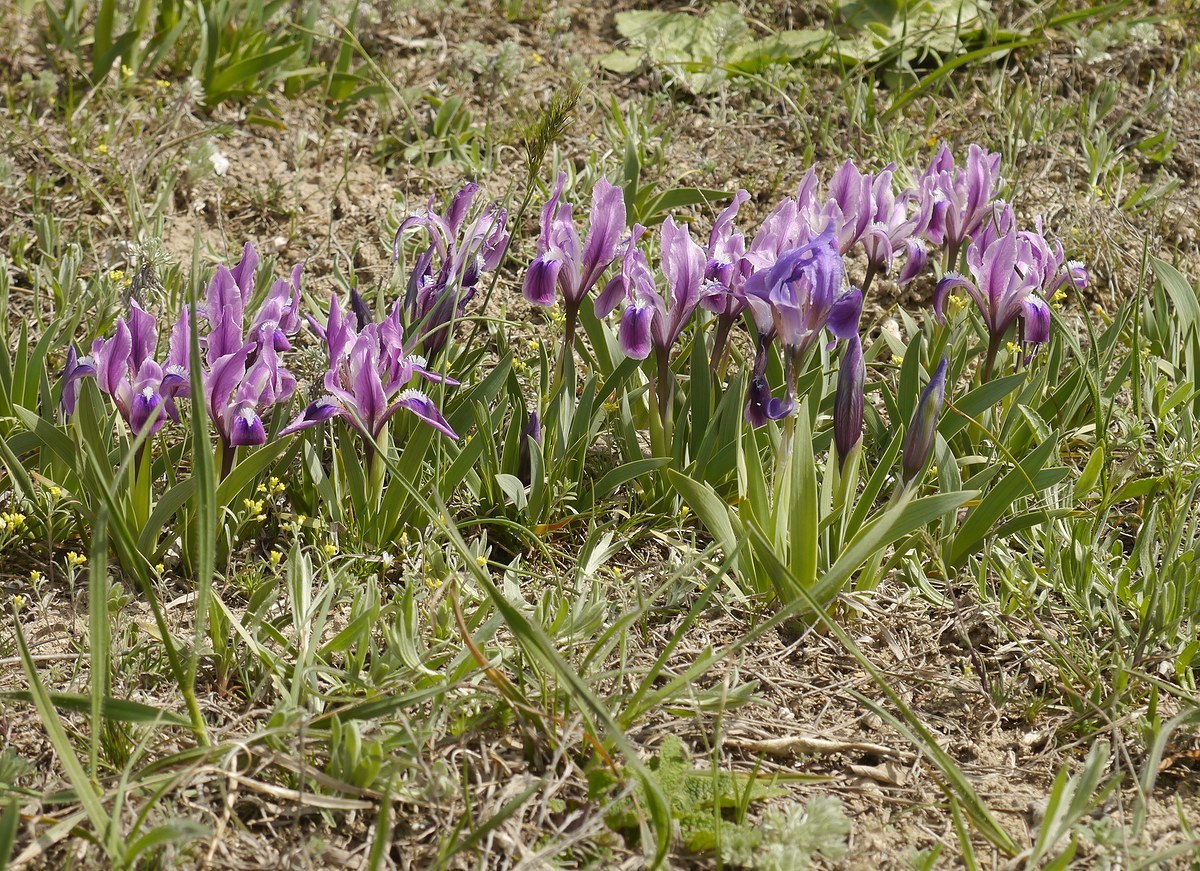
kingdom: Plantae
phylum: Tracheophyta
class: Liliopsida
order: Asparagales
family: Iridaceae
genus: Iris
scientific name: Iris pumila
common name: Dwarf iris
